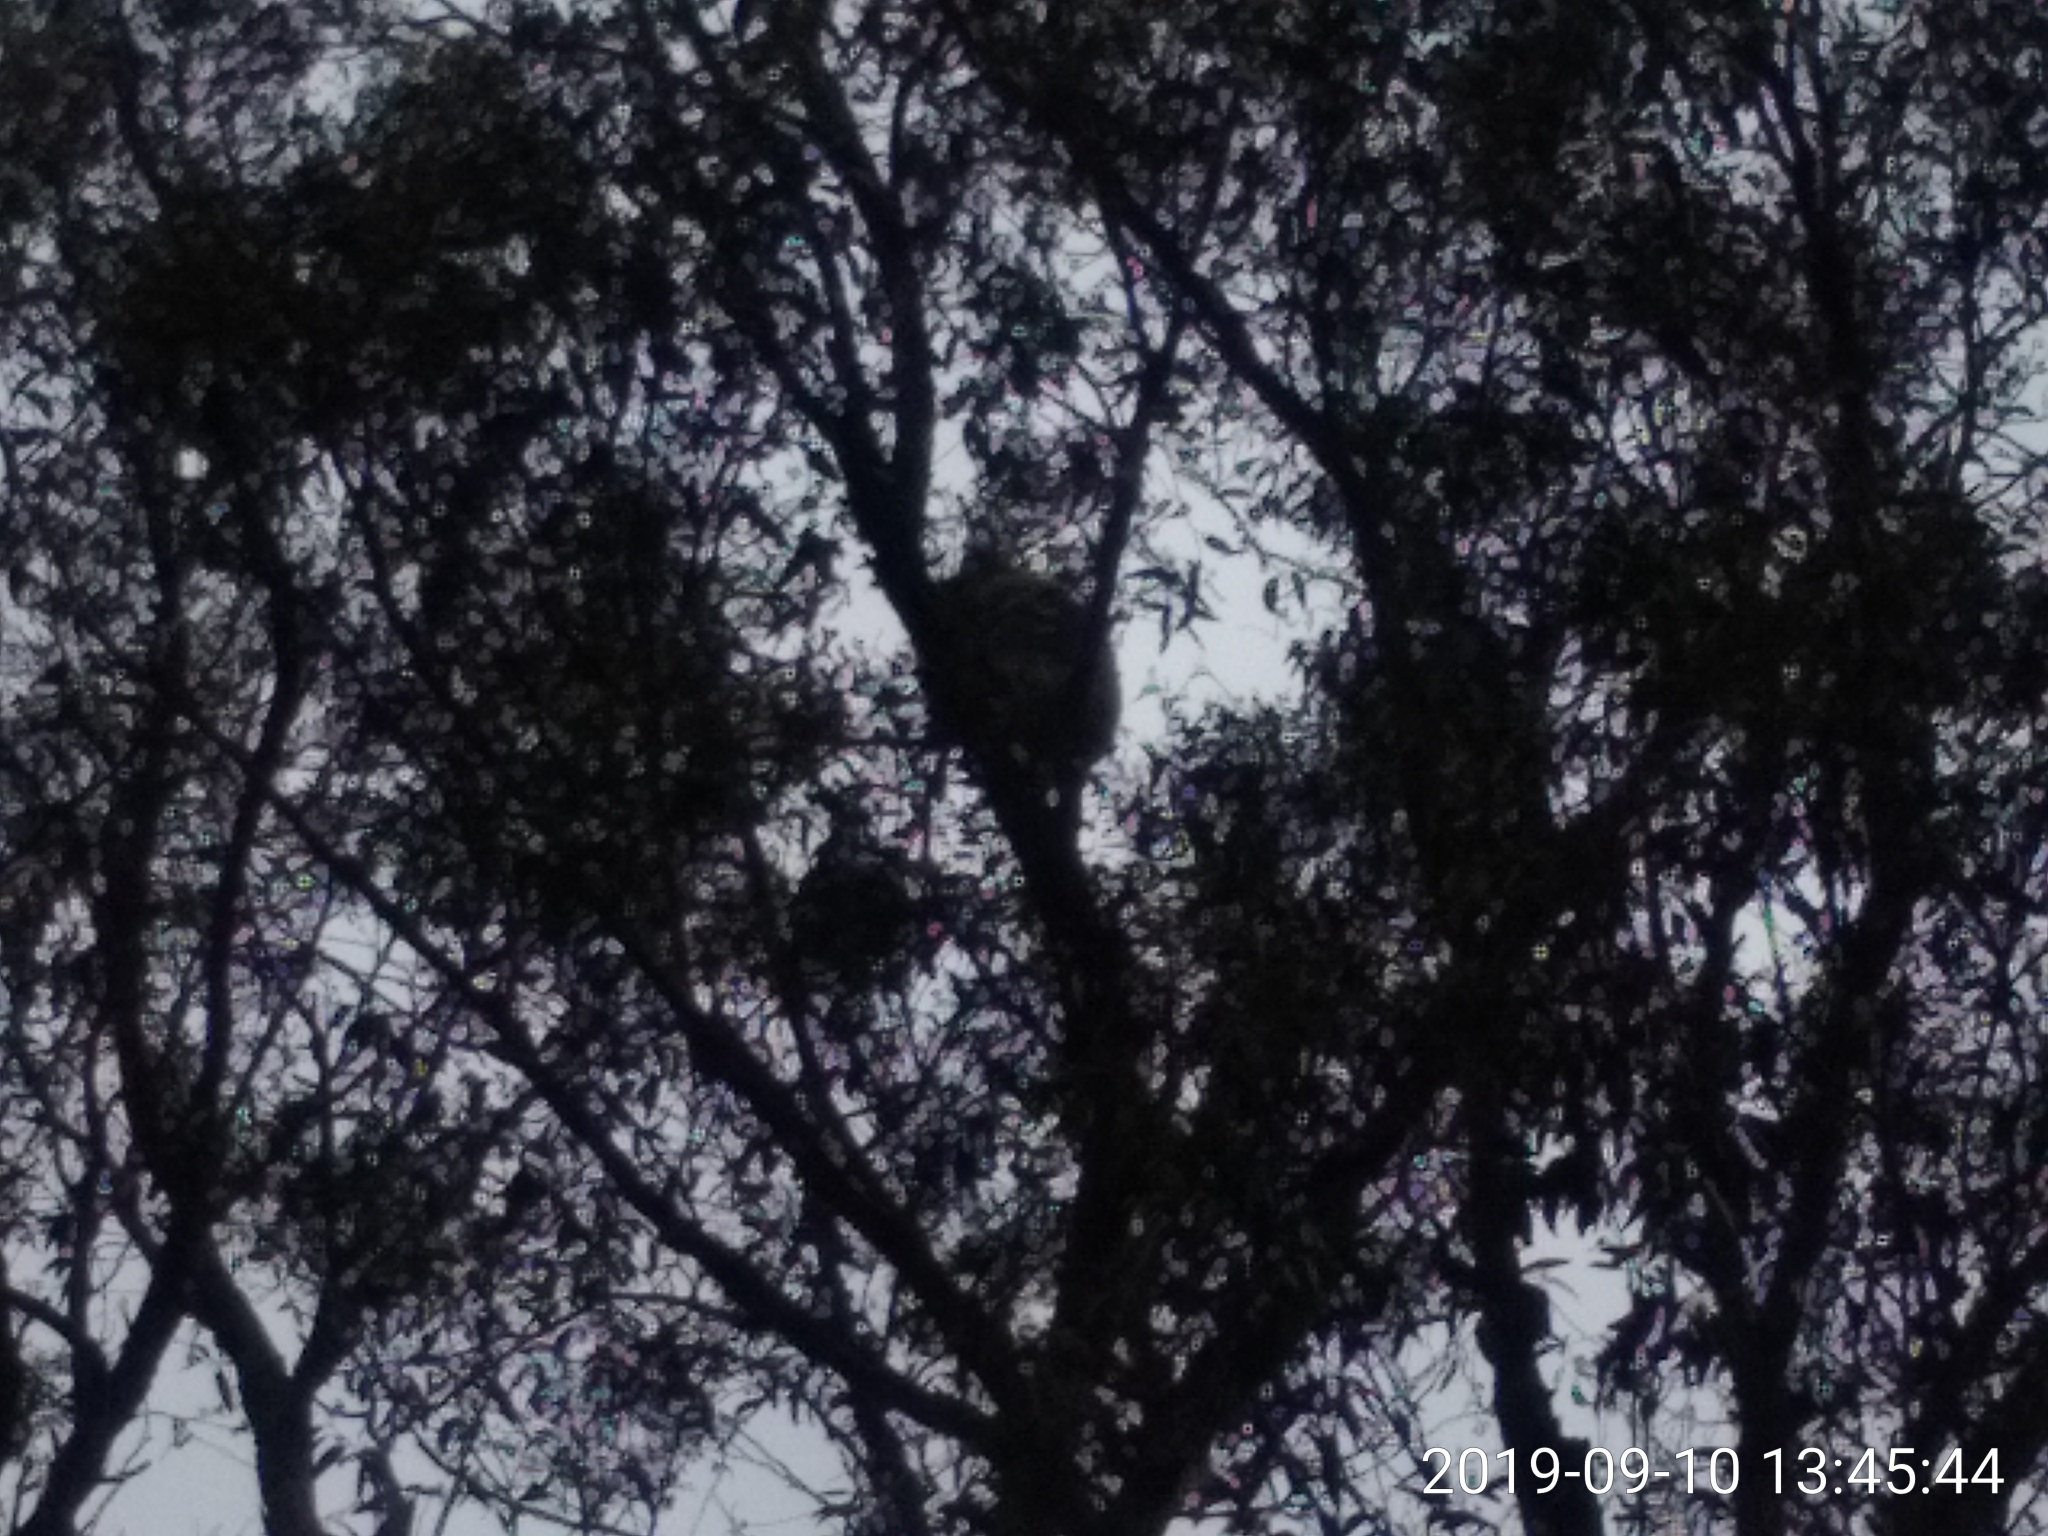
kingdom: Animalia
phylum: Chordata
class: Mammalia
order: Diprotodontia
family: Phascolarctidae
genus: Phascolarctos
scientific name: Phascolarctos cinereus
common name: Koala
